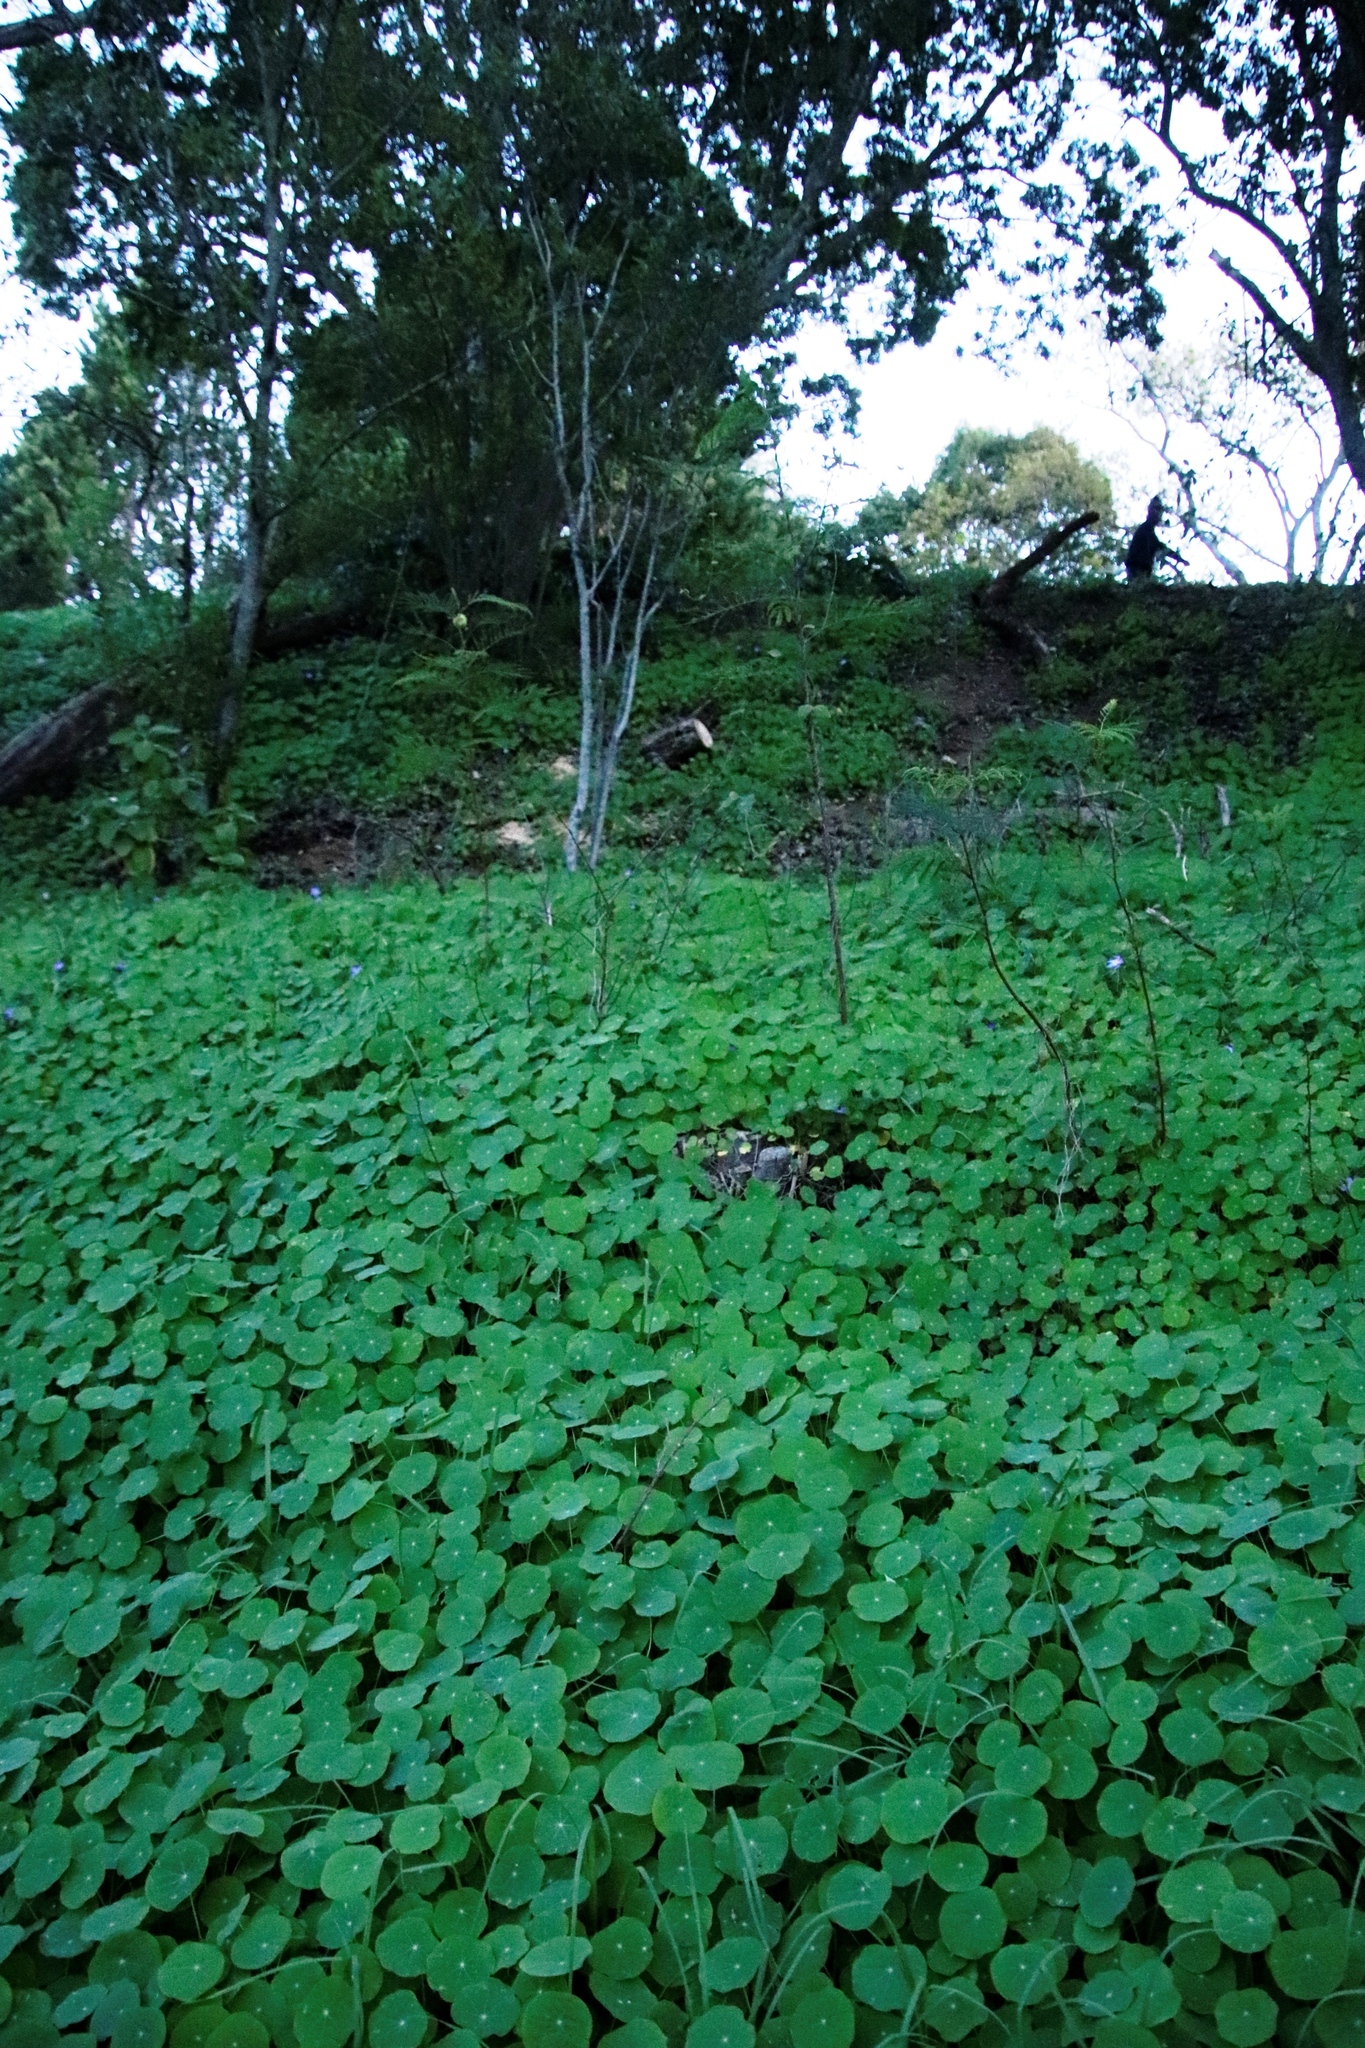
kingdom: Plantae
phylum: Tracheophyta
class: Magnoliopsida
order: Brassicales
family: Tropaeolaceae
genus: Tropaeolum
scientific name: Tropaeolum majus
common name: Nasturtium
